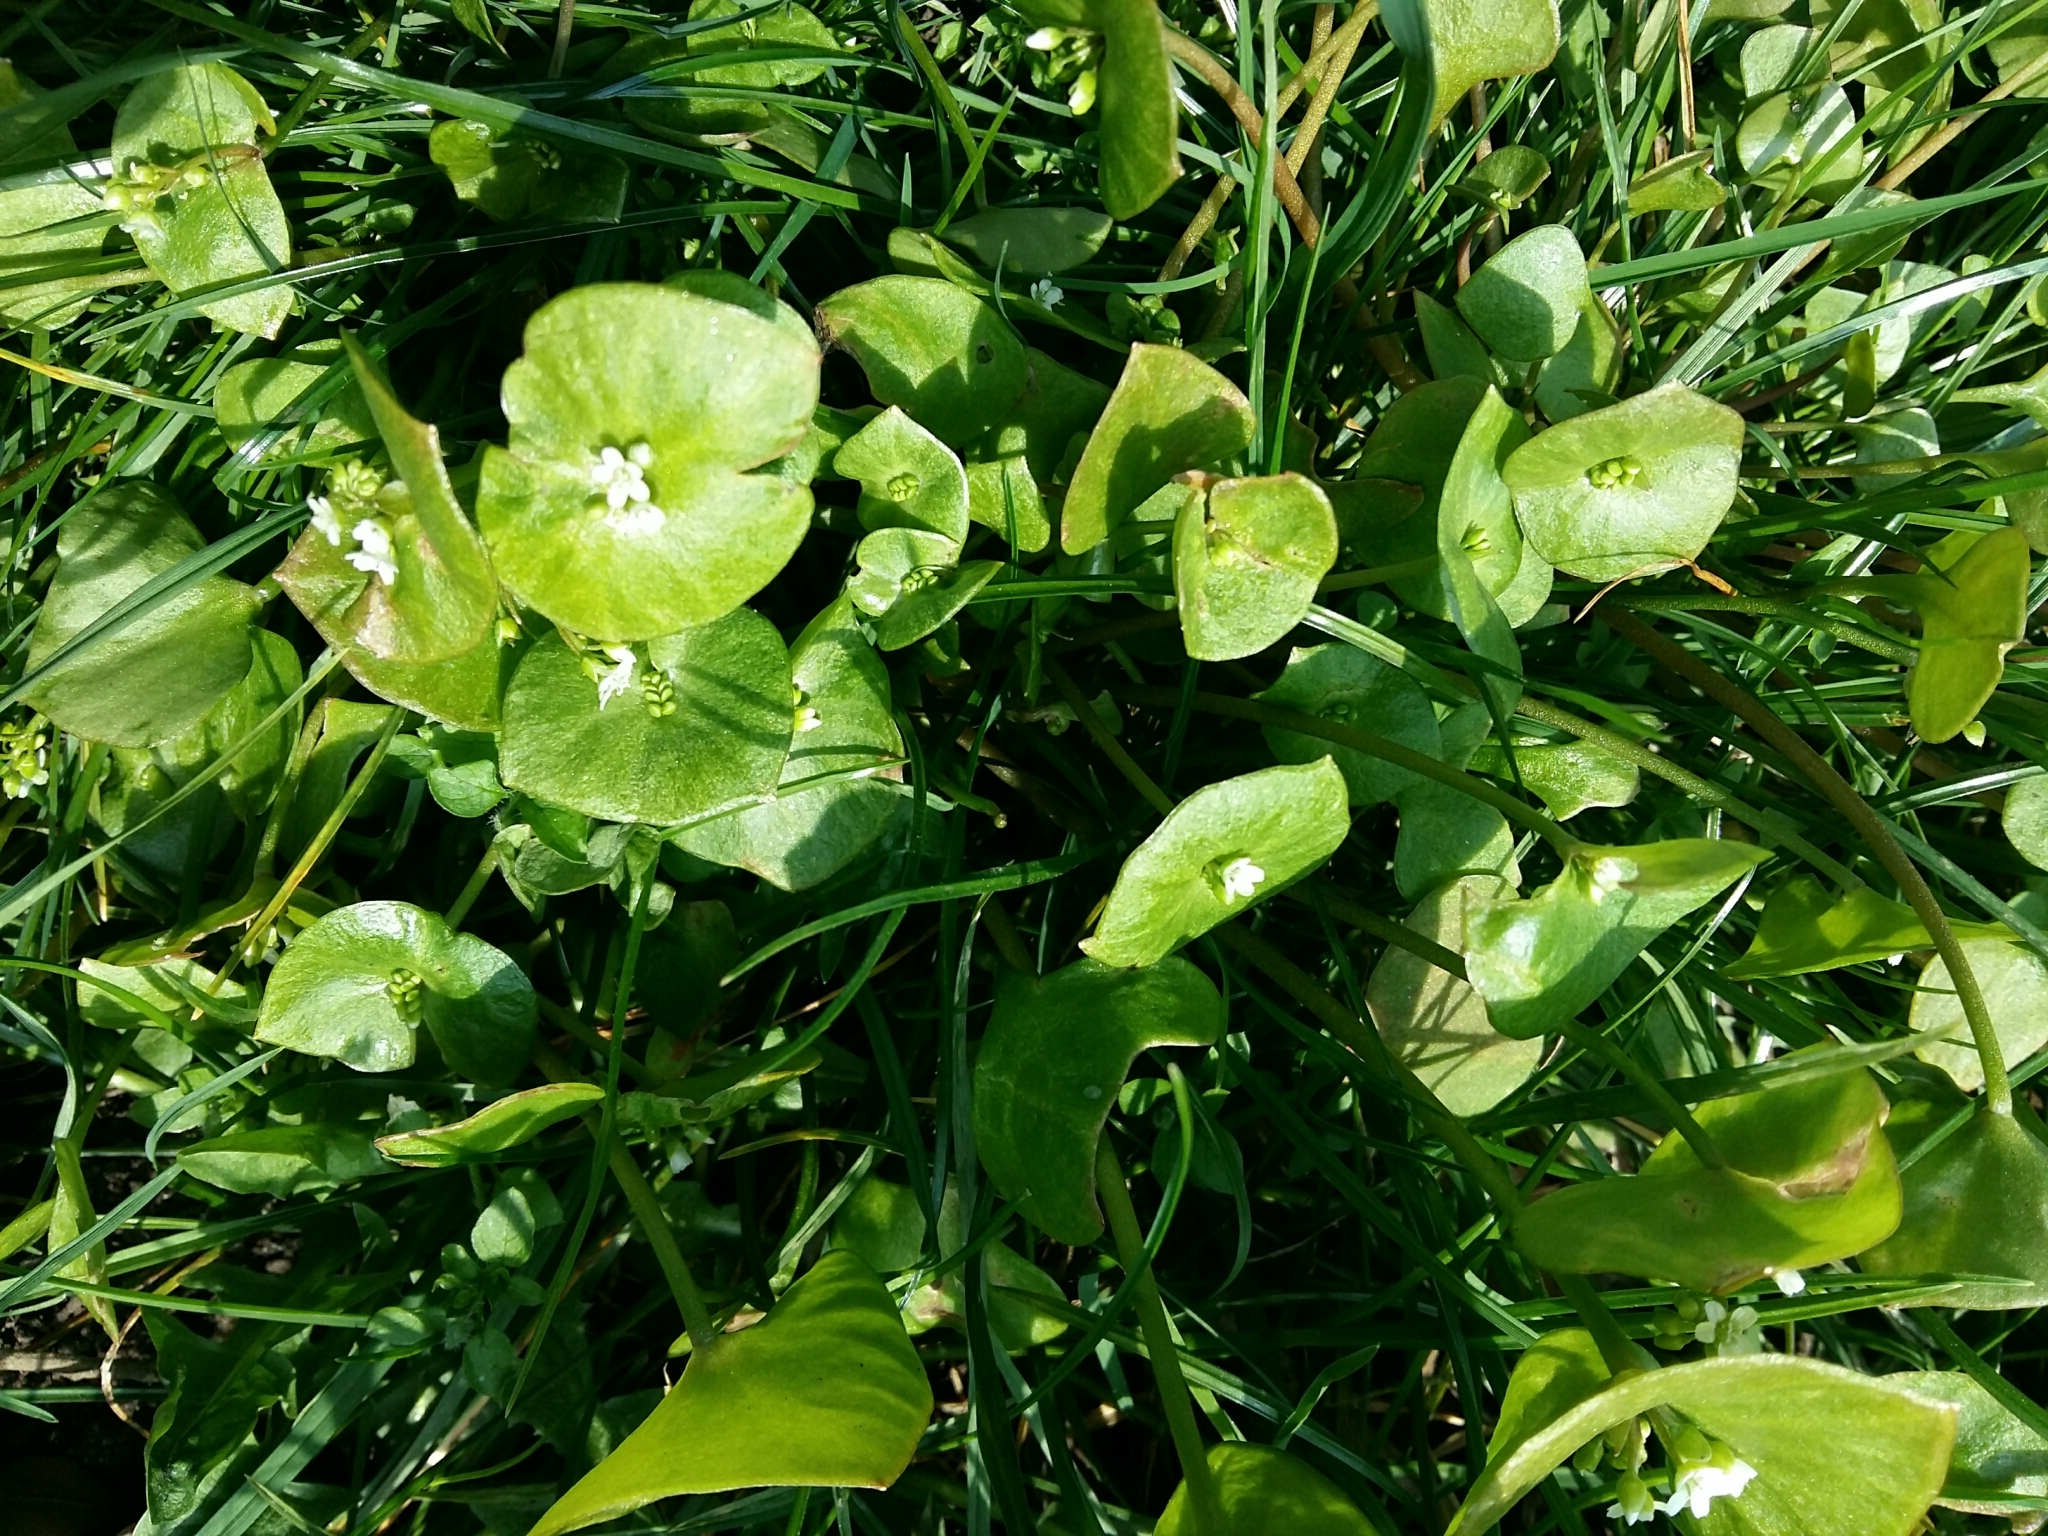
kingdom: Plantae
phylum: Tracheophyta
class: Magnoliopsida
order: Caryophyllales
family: Montiaceae
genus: Claytonia
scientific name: Claytonia perfoliata
